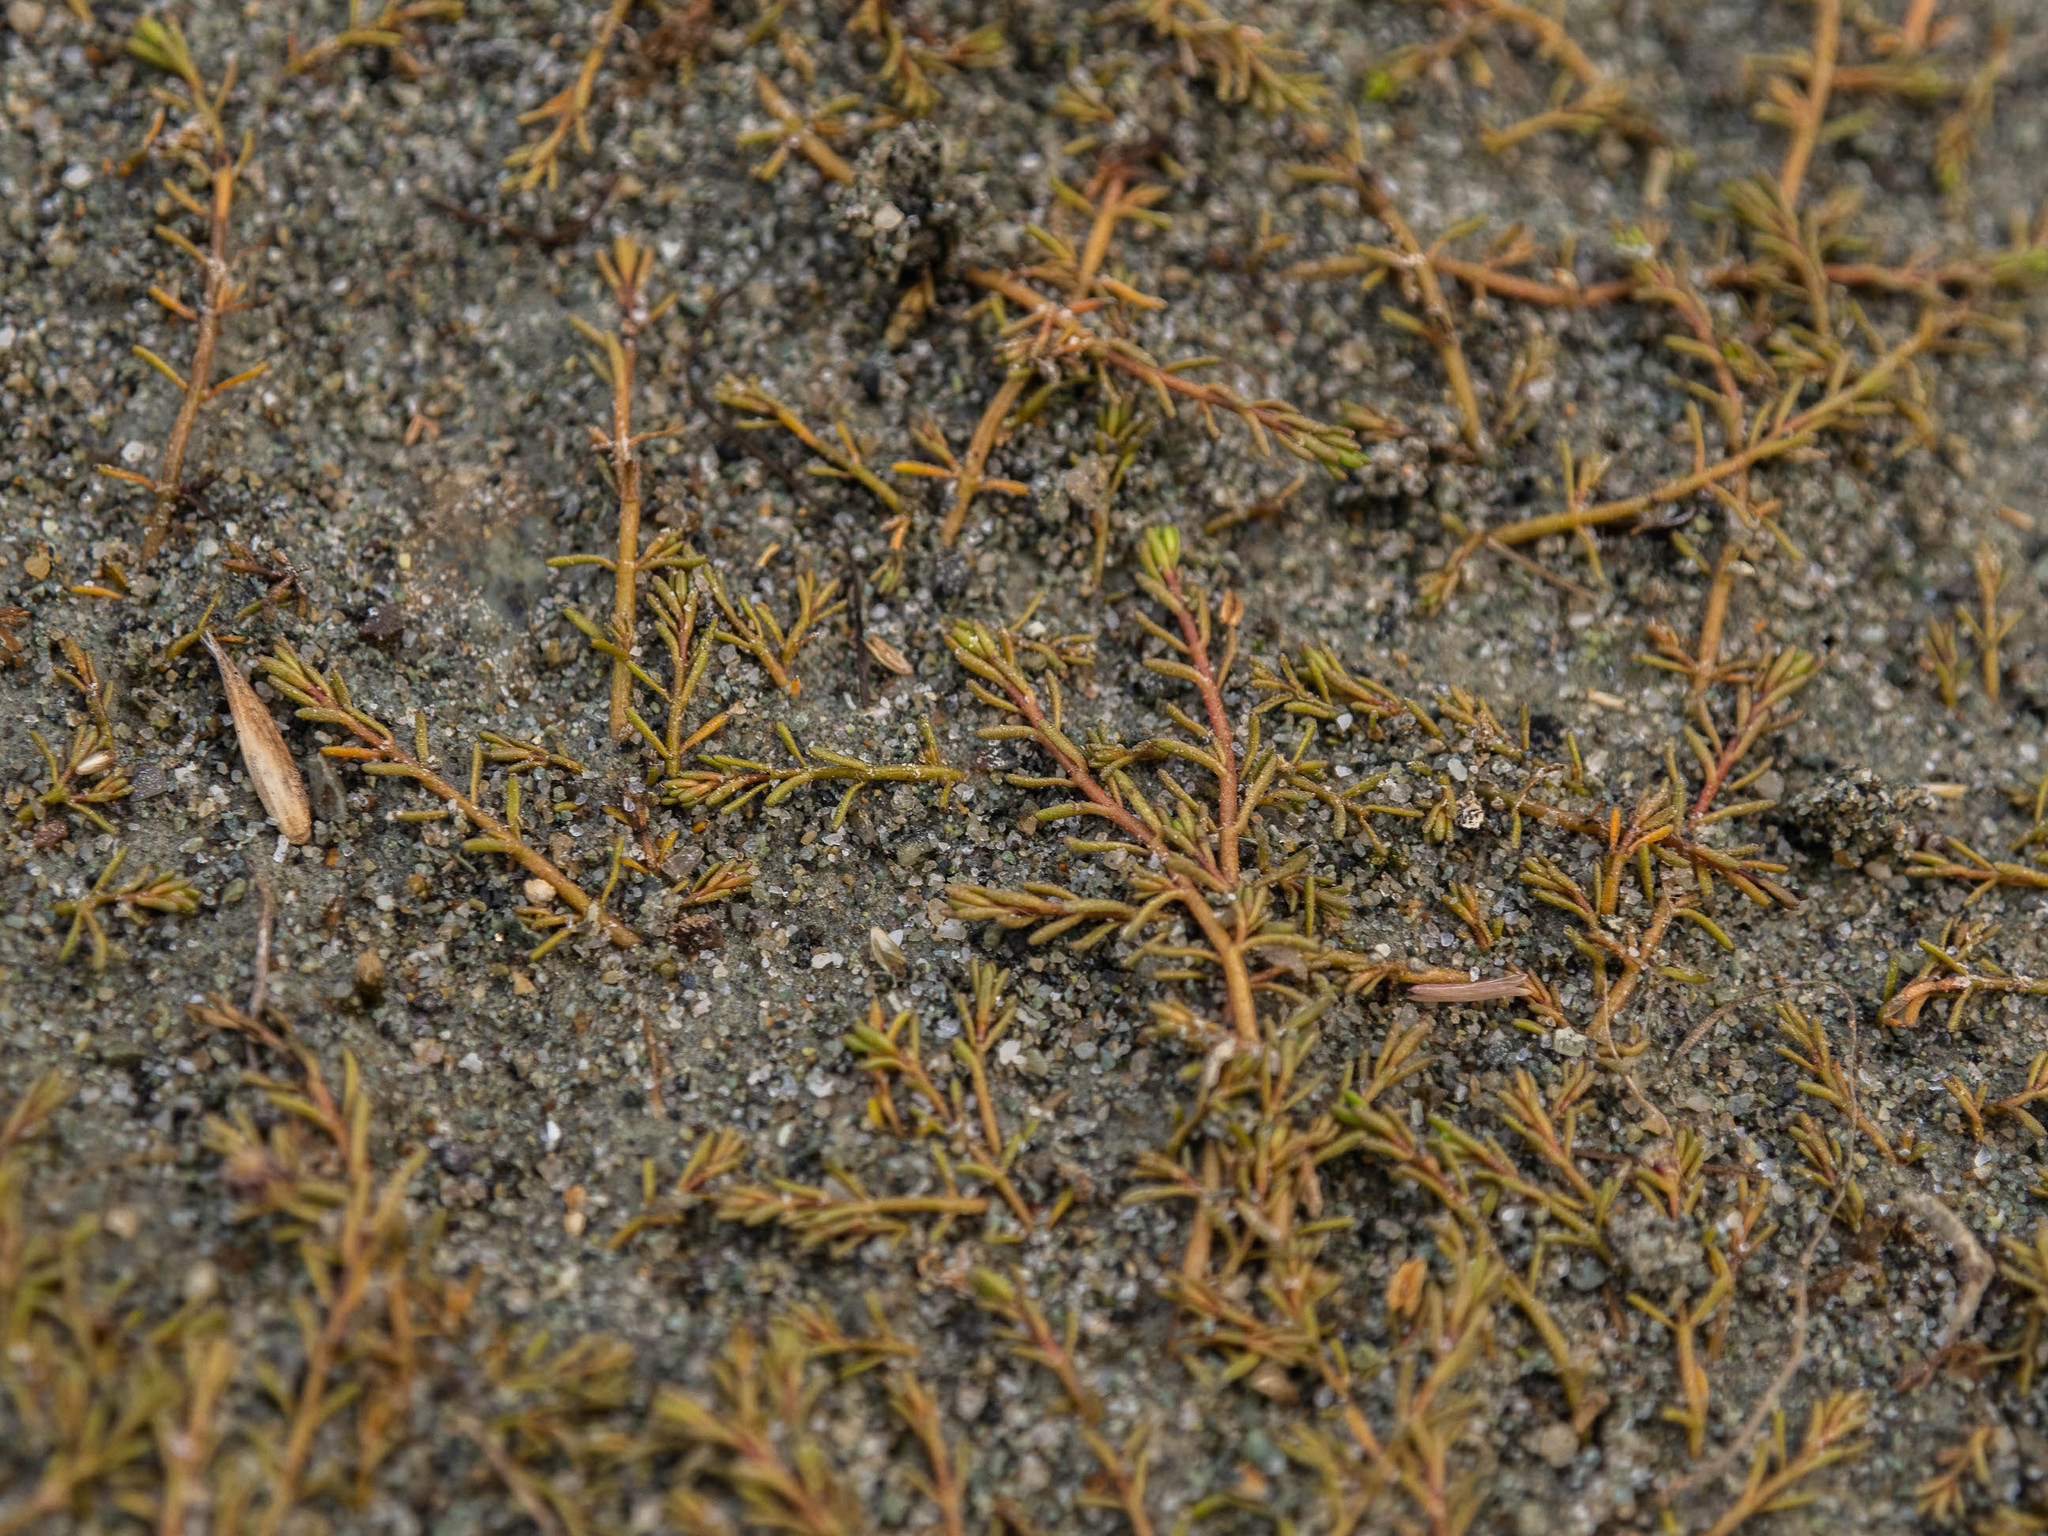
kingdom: Plantae
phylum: Tracheophyta
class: Magnoliopsida
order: Saxifragales
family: Haloragaceae
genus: Myriophyllum
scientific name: Myriophyllum votschii
